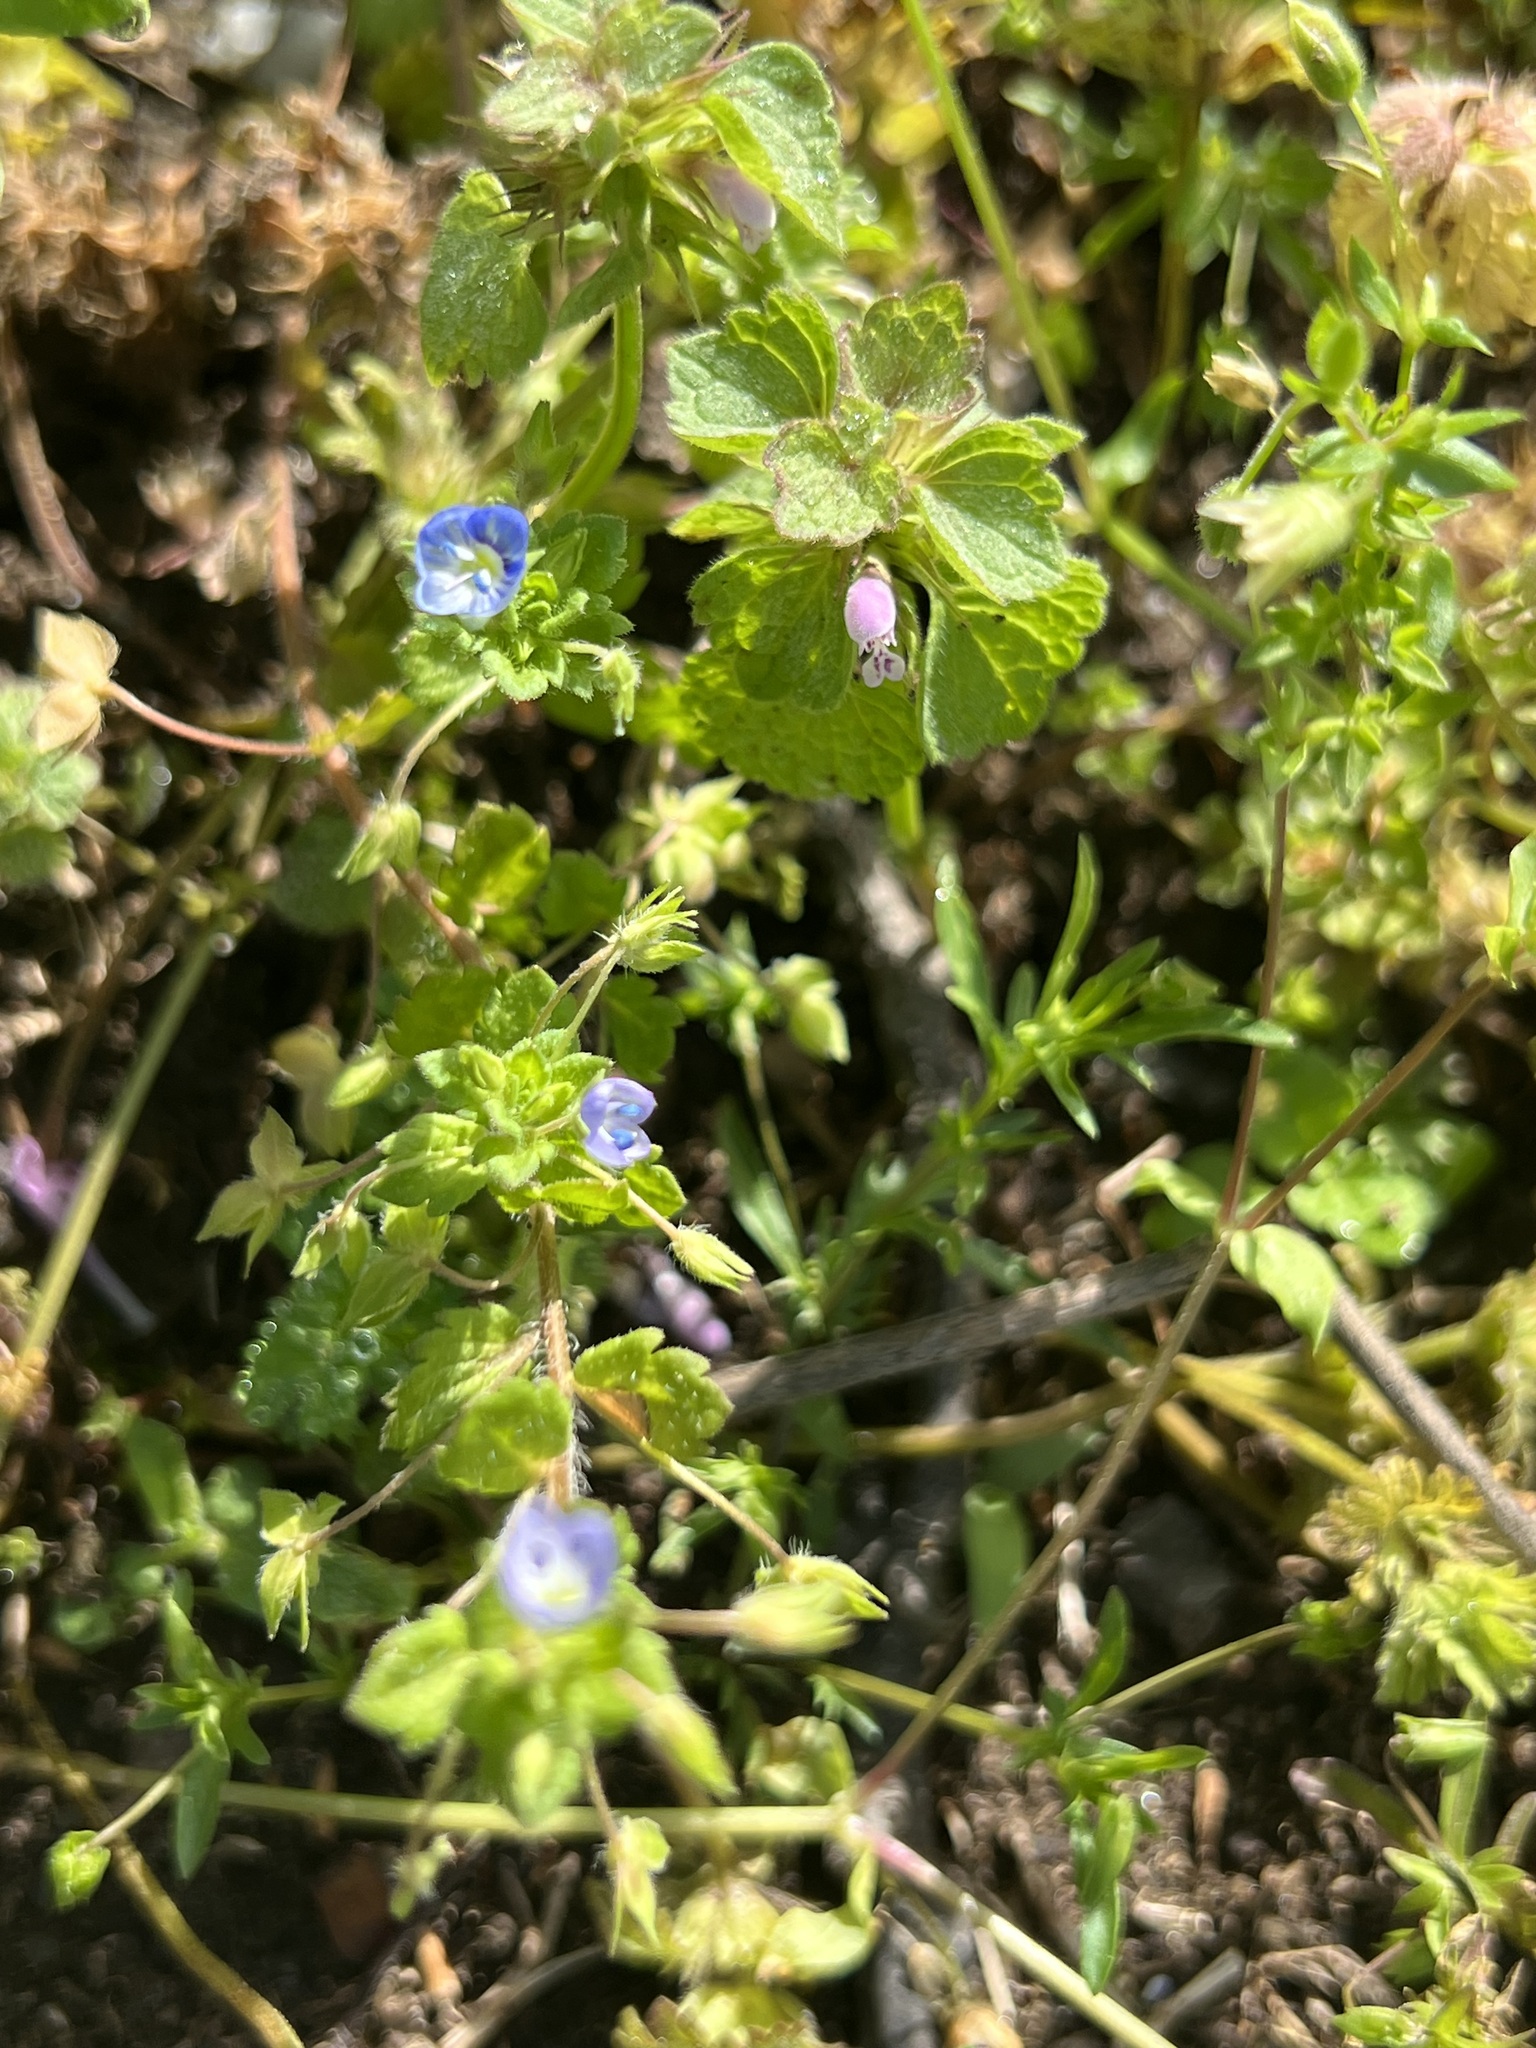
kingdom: Plantae
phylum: Tracheophyta
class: Magnoliopsida
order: Lamiales
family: Plantaginaceae
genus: Veronica
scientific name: Veronica persica
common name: Common field-speedwell
